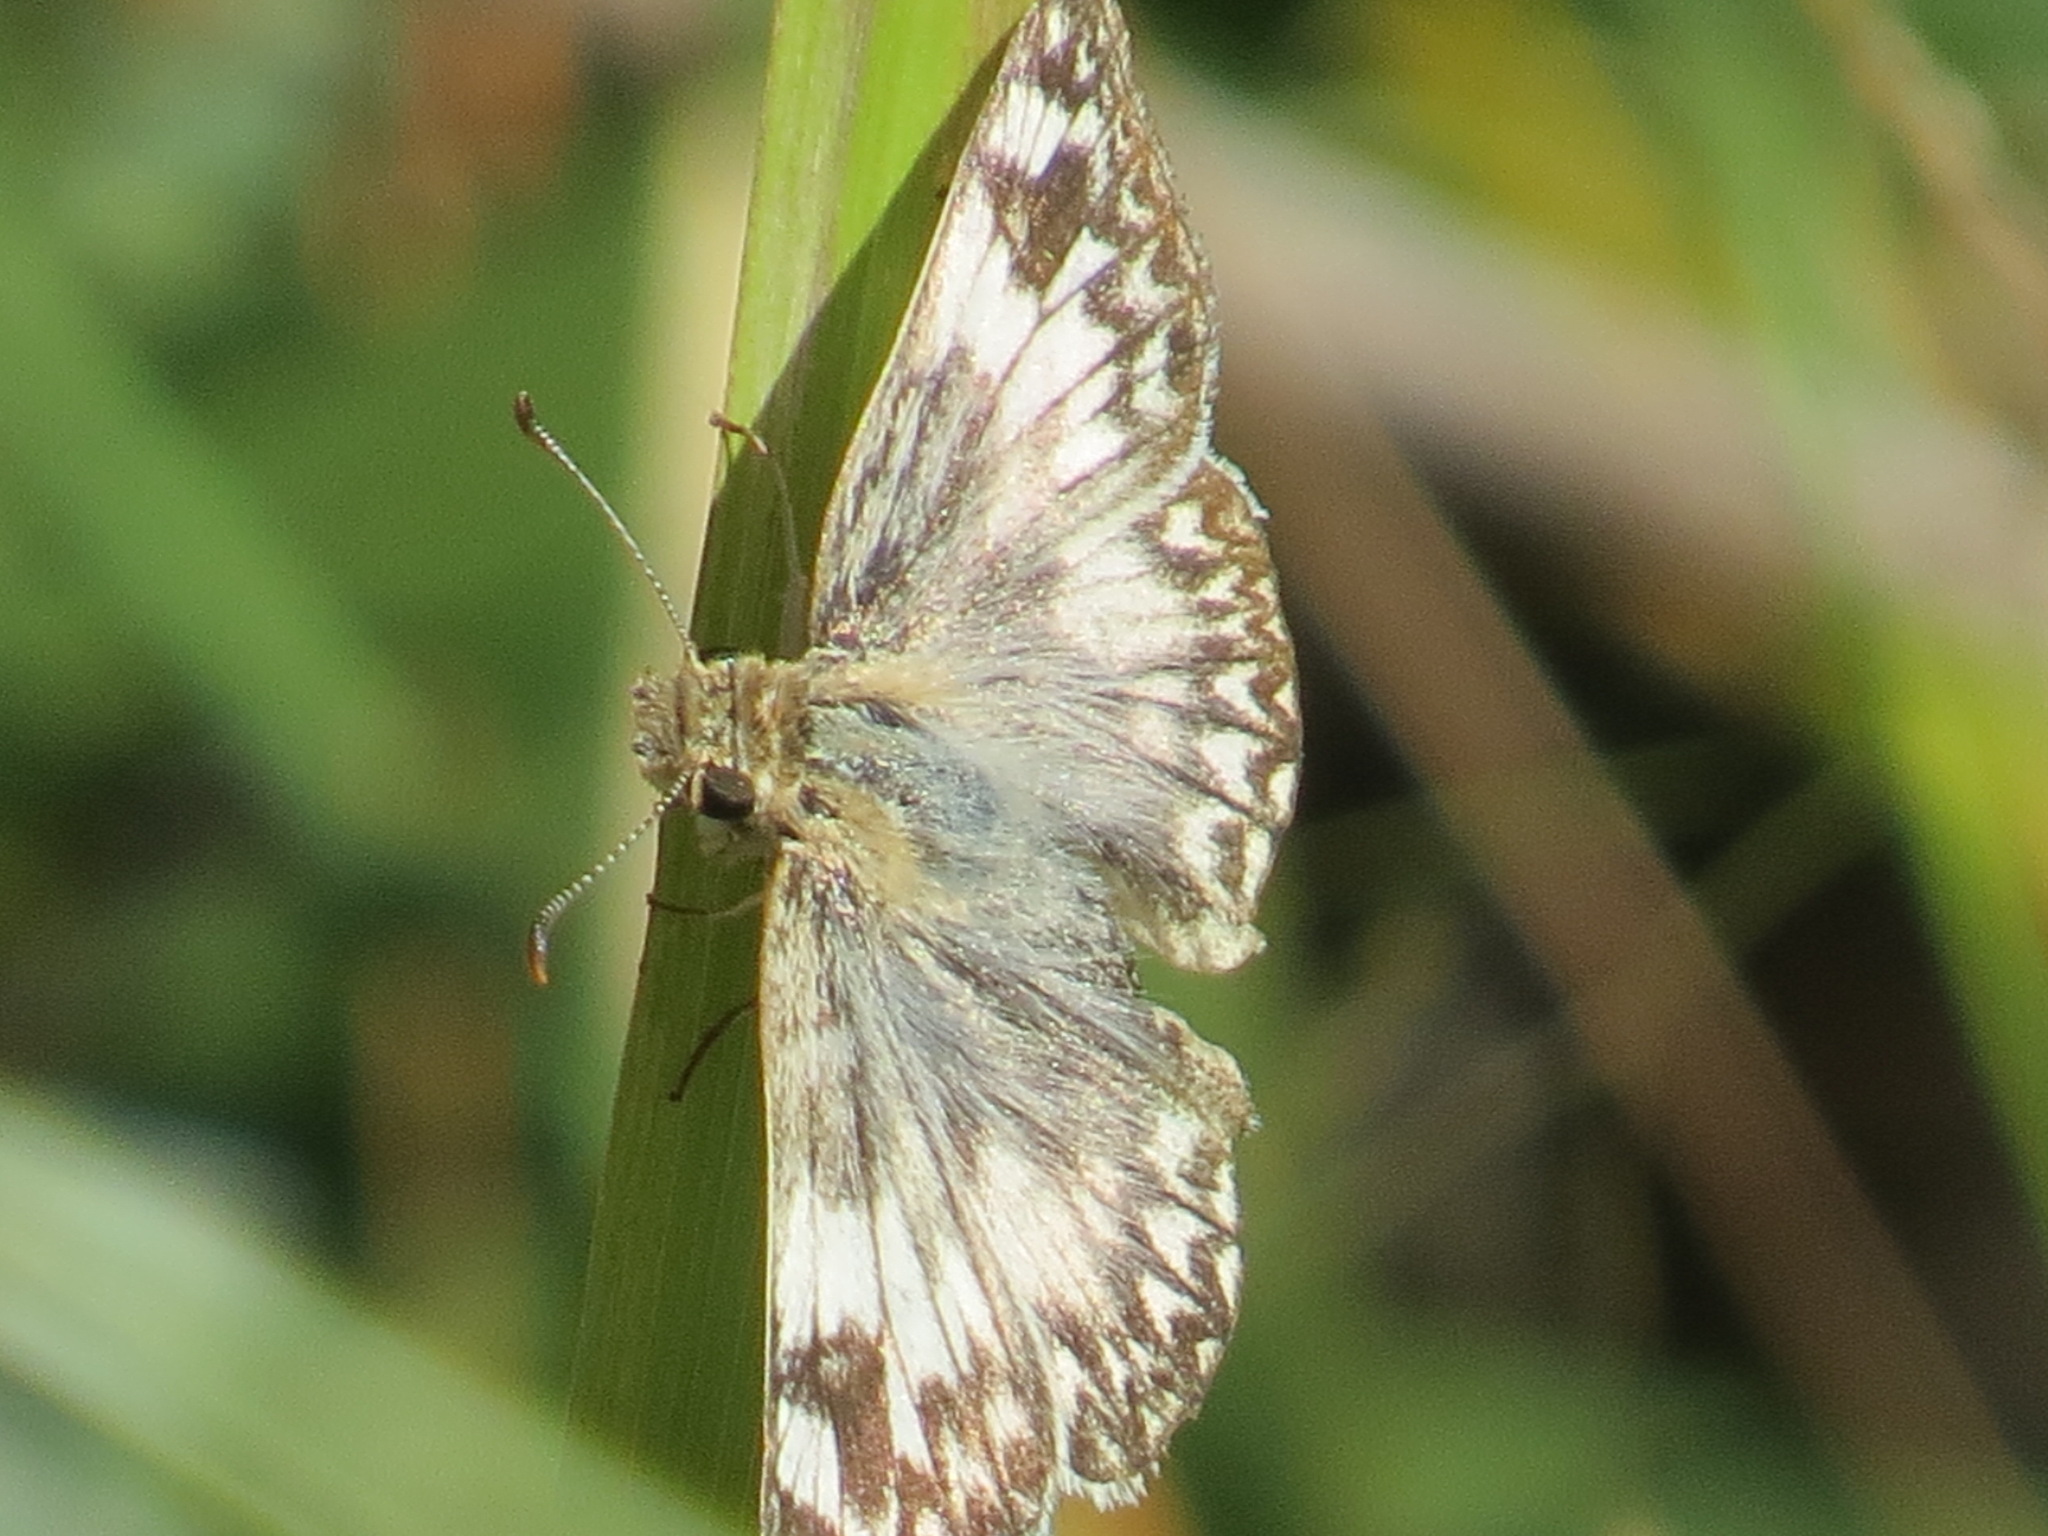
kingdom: Animalia
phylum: Arthropoda
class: Insecta
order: Lepidoptera
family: Hesperiidae
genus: Heliopetes
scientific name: Heliopetes ericetorum
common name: Northern white-skipper
